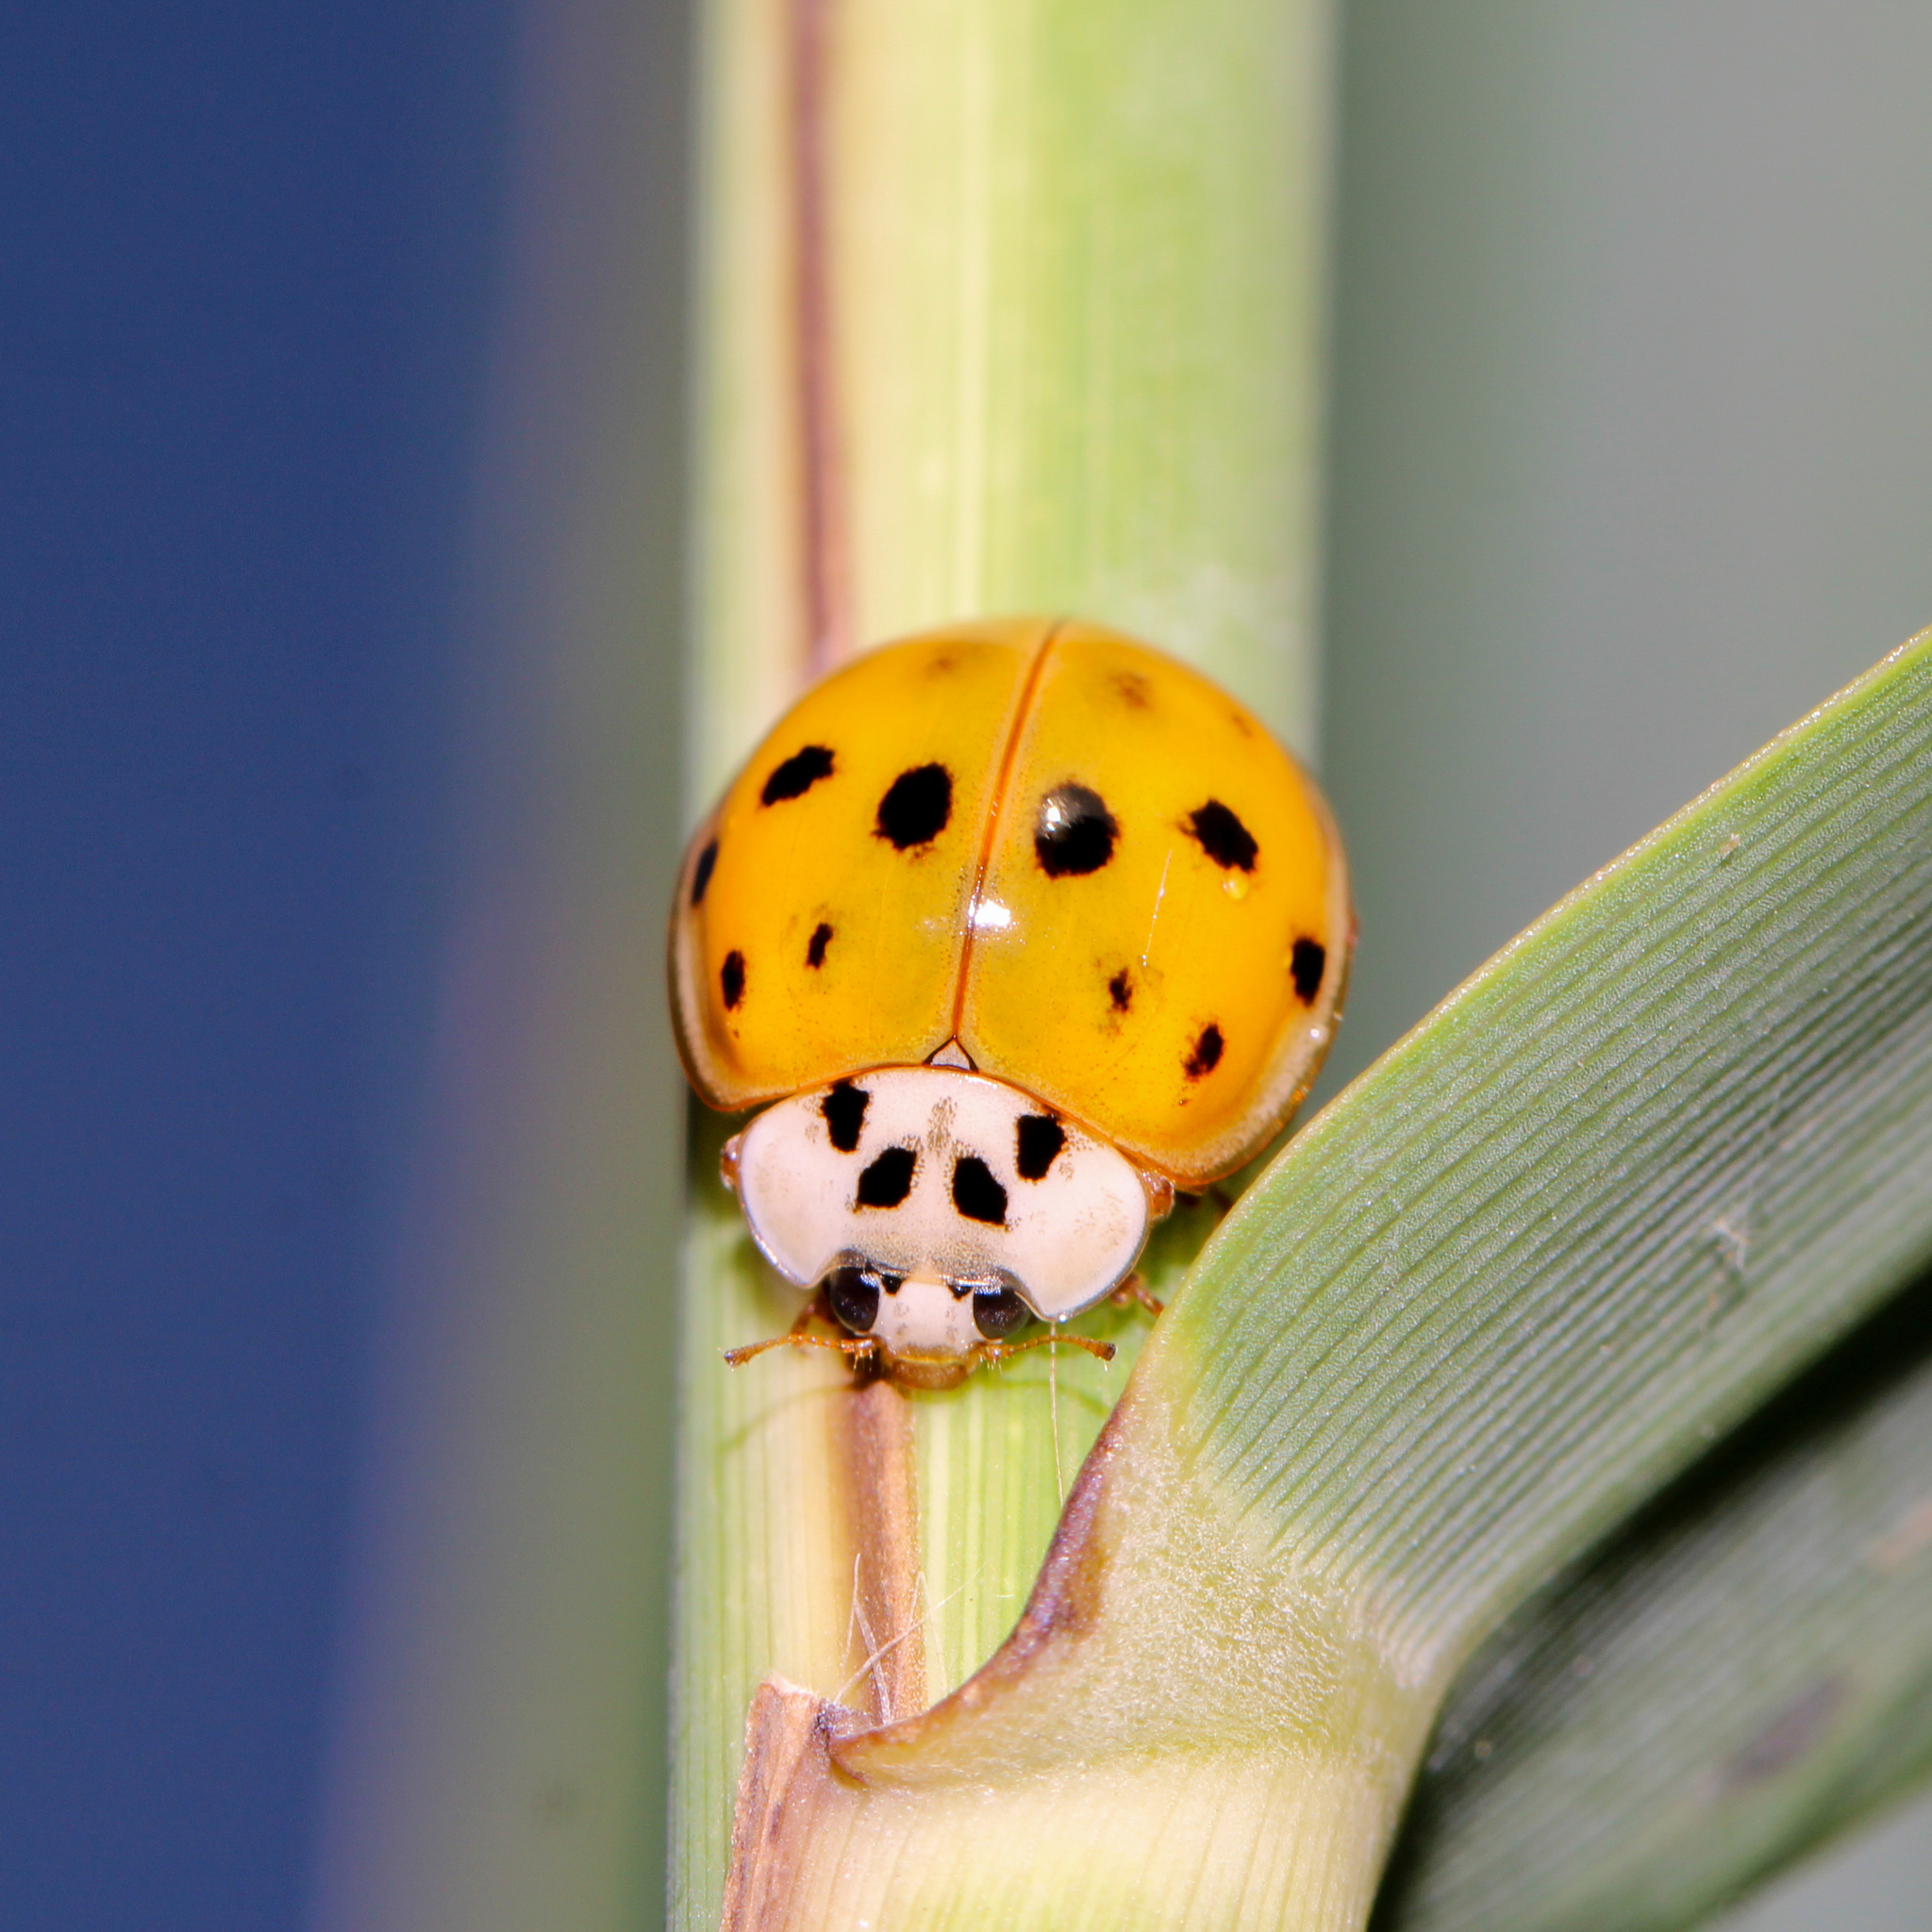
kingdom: Animalia
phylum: Arthropoda
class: Insecta
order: Coleoptera
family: Coccinellidae
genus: Harmonia
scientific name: Harmonia axyridis
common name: Harlequin ladybird
